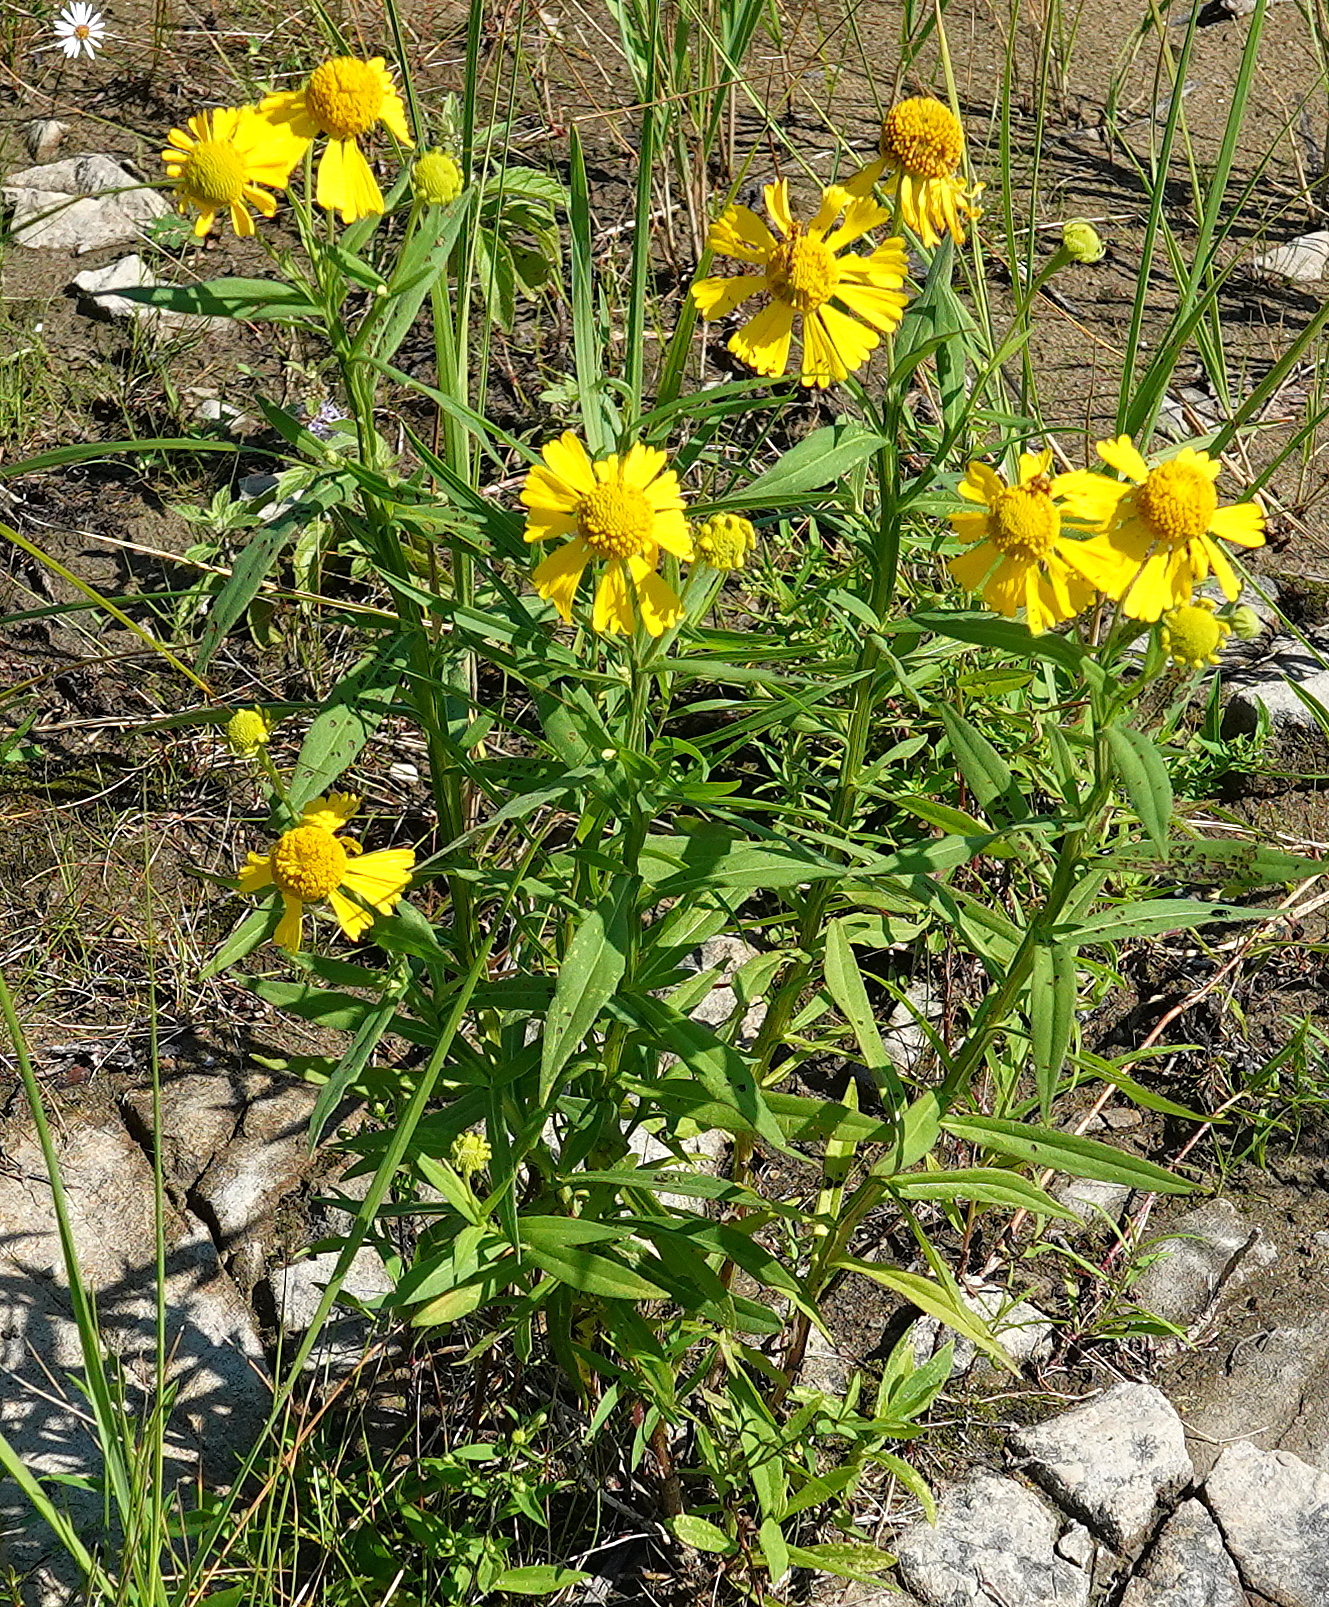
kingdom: Plantae
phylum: Tracheophyta
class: Magnoliopsida
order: Asterales
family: Asteraceae
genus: Helenium
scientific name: Helenium autumnale
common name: Sneezeweed
